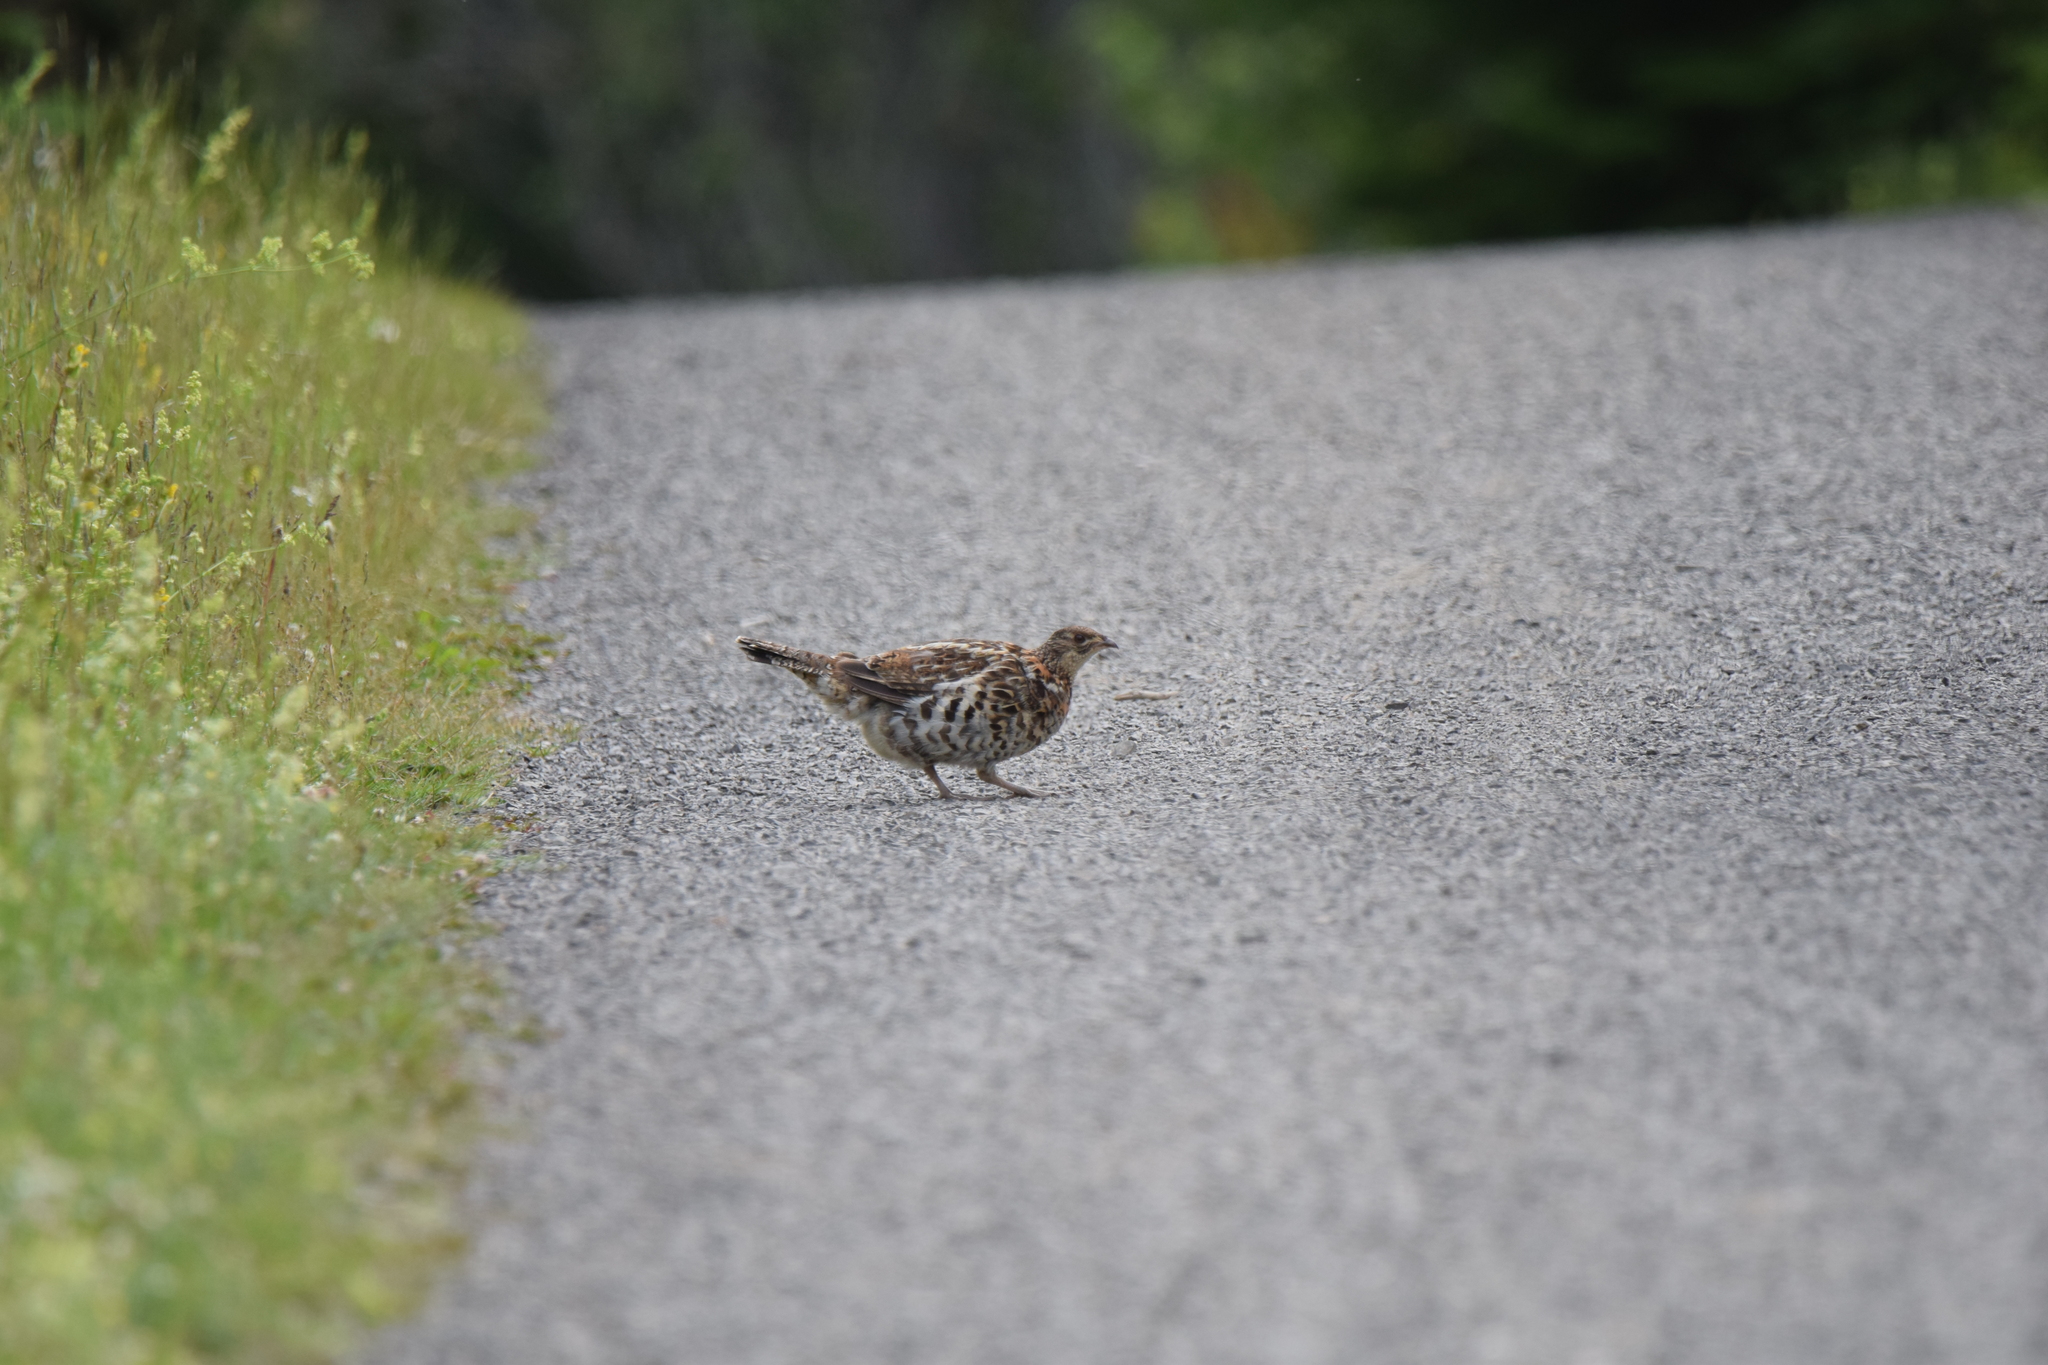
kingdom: Animalia
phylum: Chordata
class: Aves
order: Galliformes
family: Phasianidae
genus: Bonasa
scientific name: Bonasa umbellus
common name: Ruffed grouse
